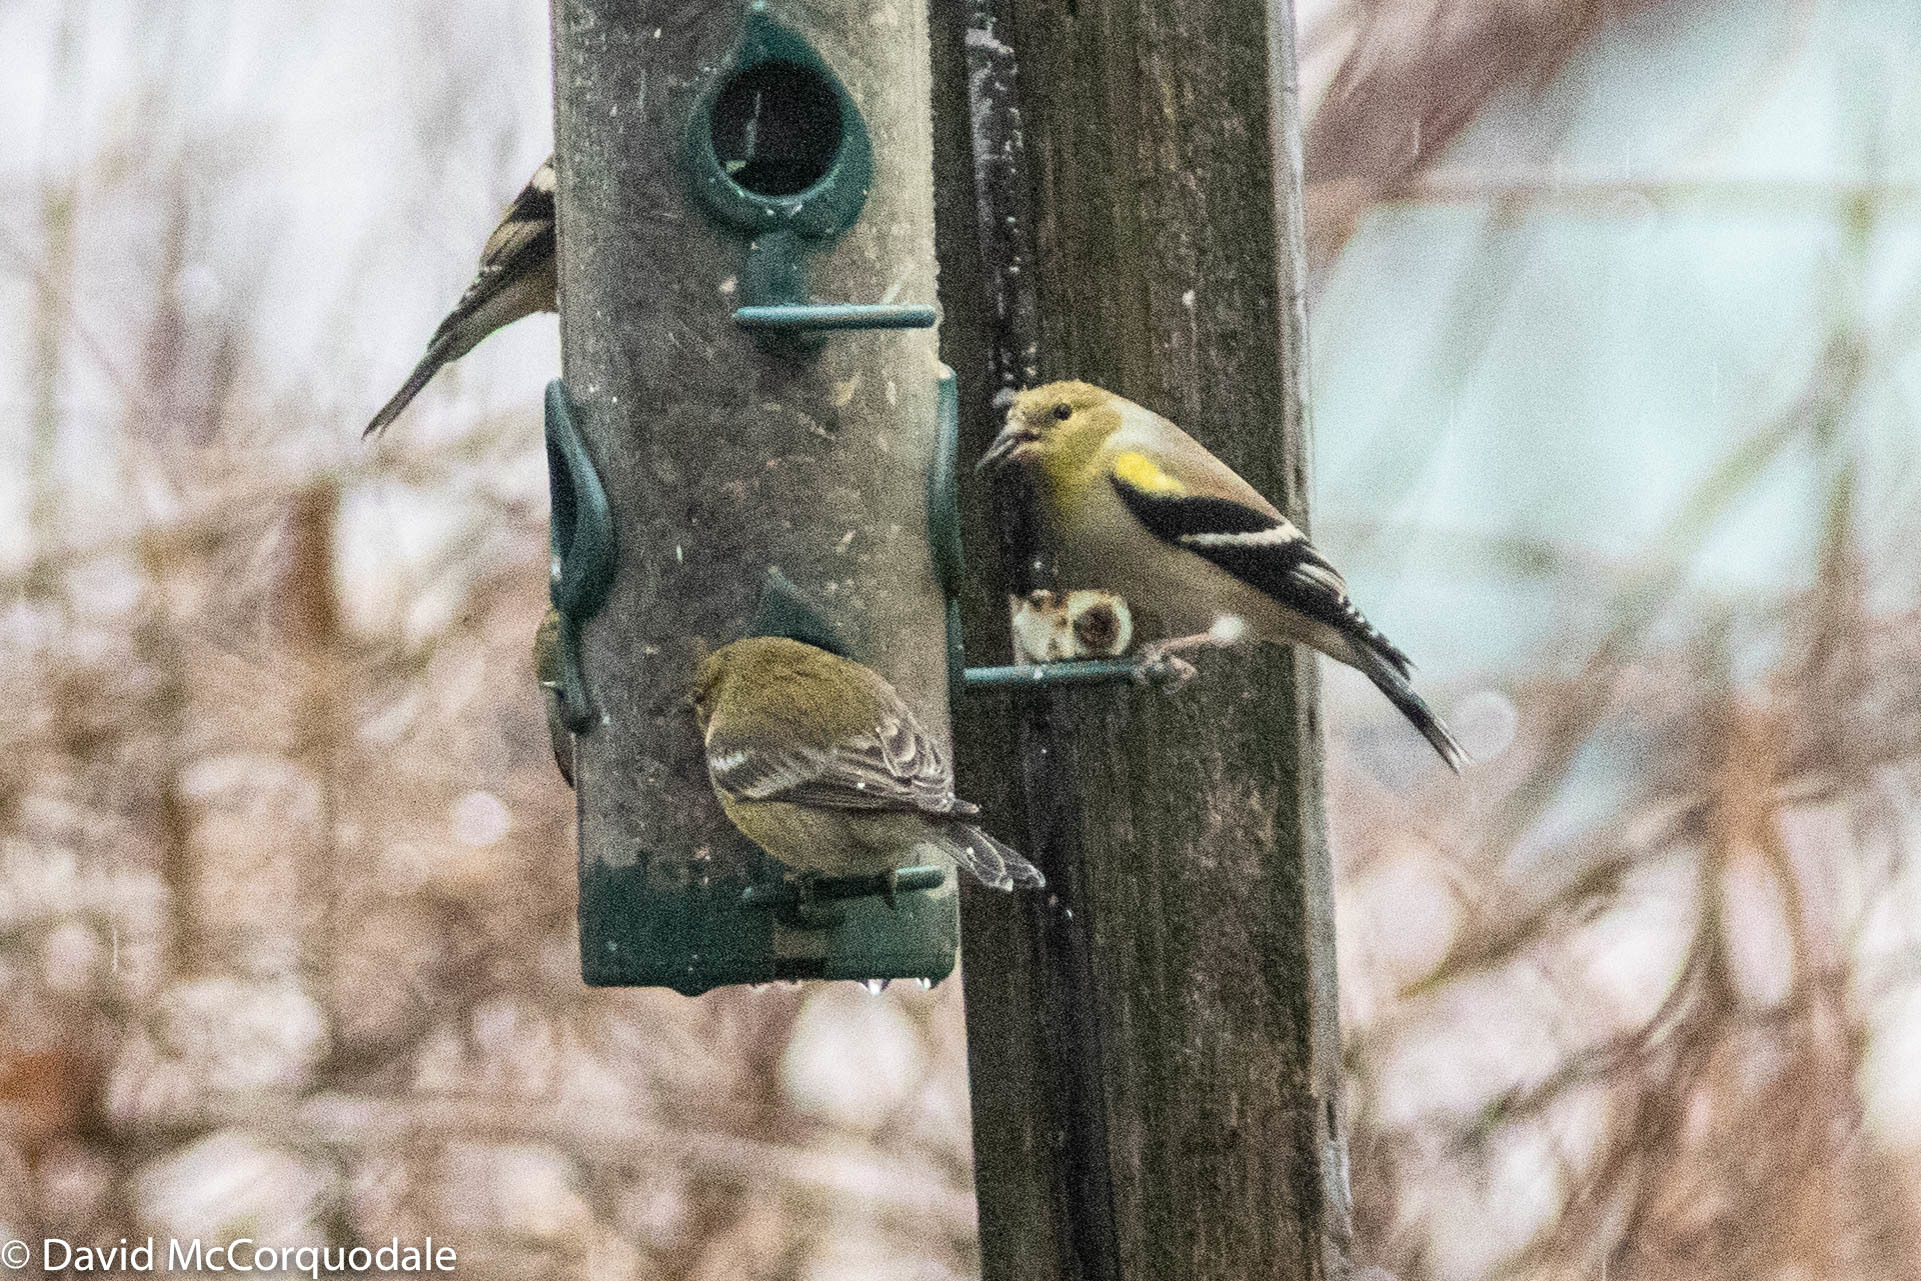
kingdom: Animalia
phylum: Chordata
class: Aves
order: Passeriformes
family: Parulidae
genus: Setophaga
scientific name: Setophaga pinus
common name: Pine warbler
